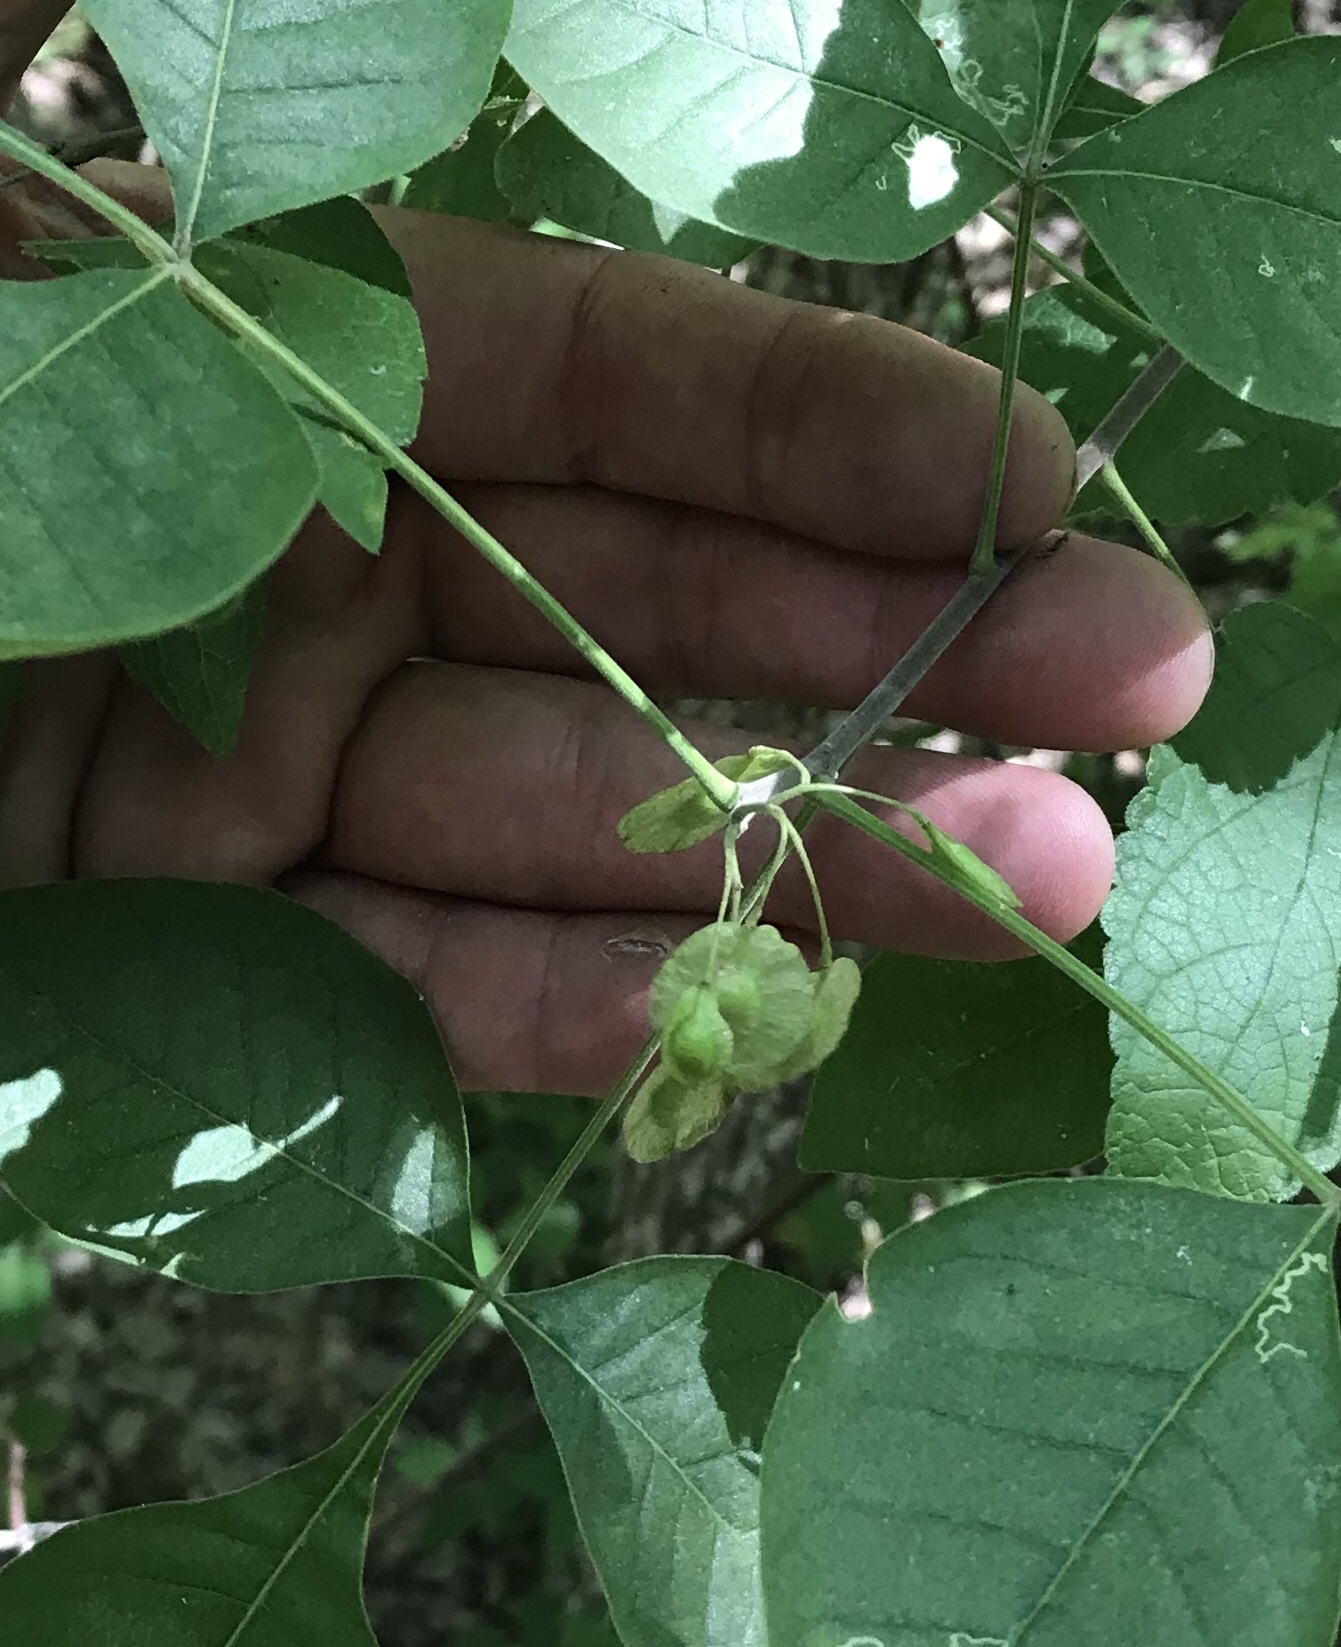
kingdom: Plantae
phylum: Tracheophyta
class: Magnoliopsida
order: Sapindales
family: Rutaceae
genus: Ptelea
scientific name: Ptelea trifoliata
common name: Common hop-tree
